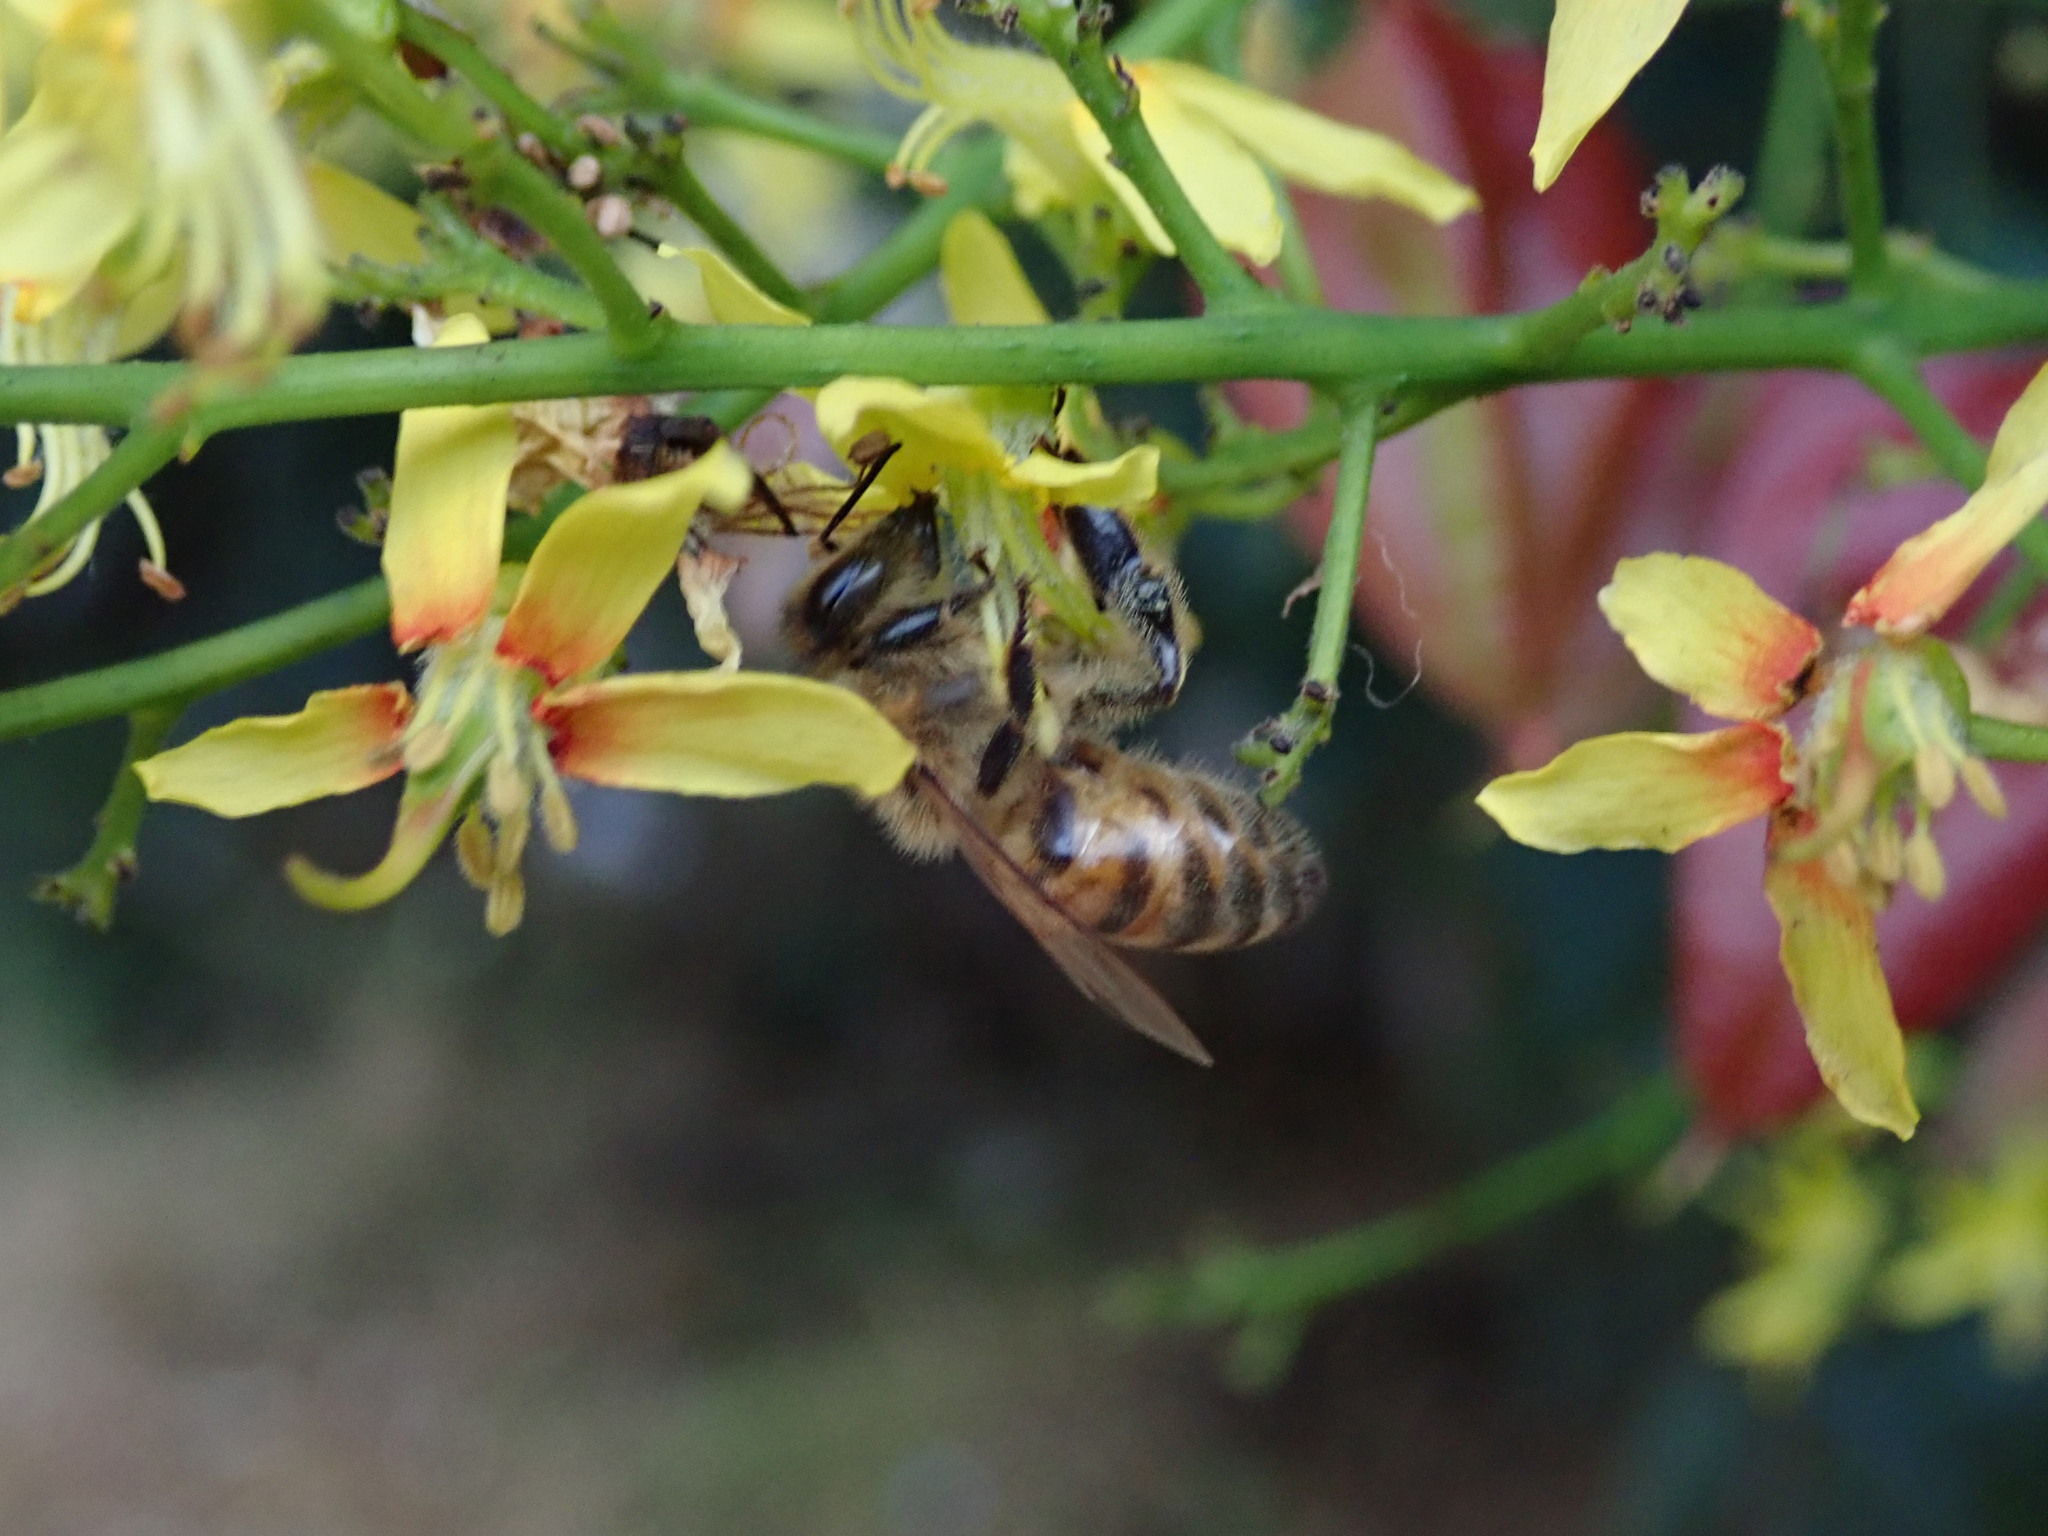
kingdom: Animalia
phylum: Arthropoda
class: Insecta
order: Hymenoptera
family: Apidae
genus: Apis
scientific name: Apis mellifera
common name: Honey bee
